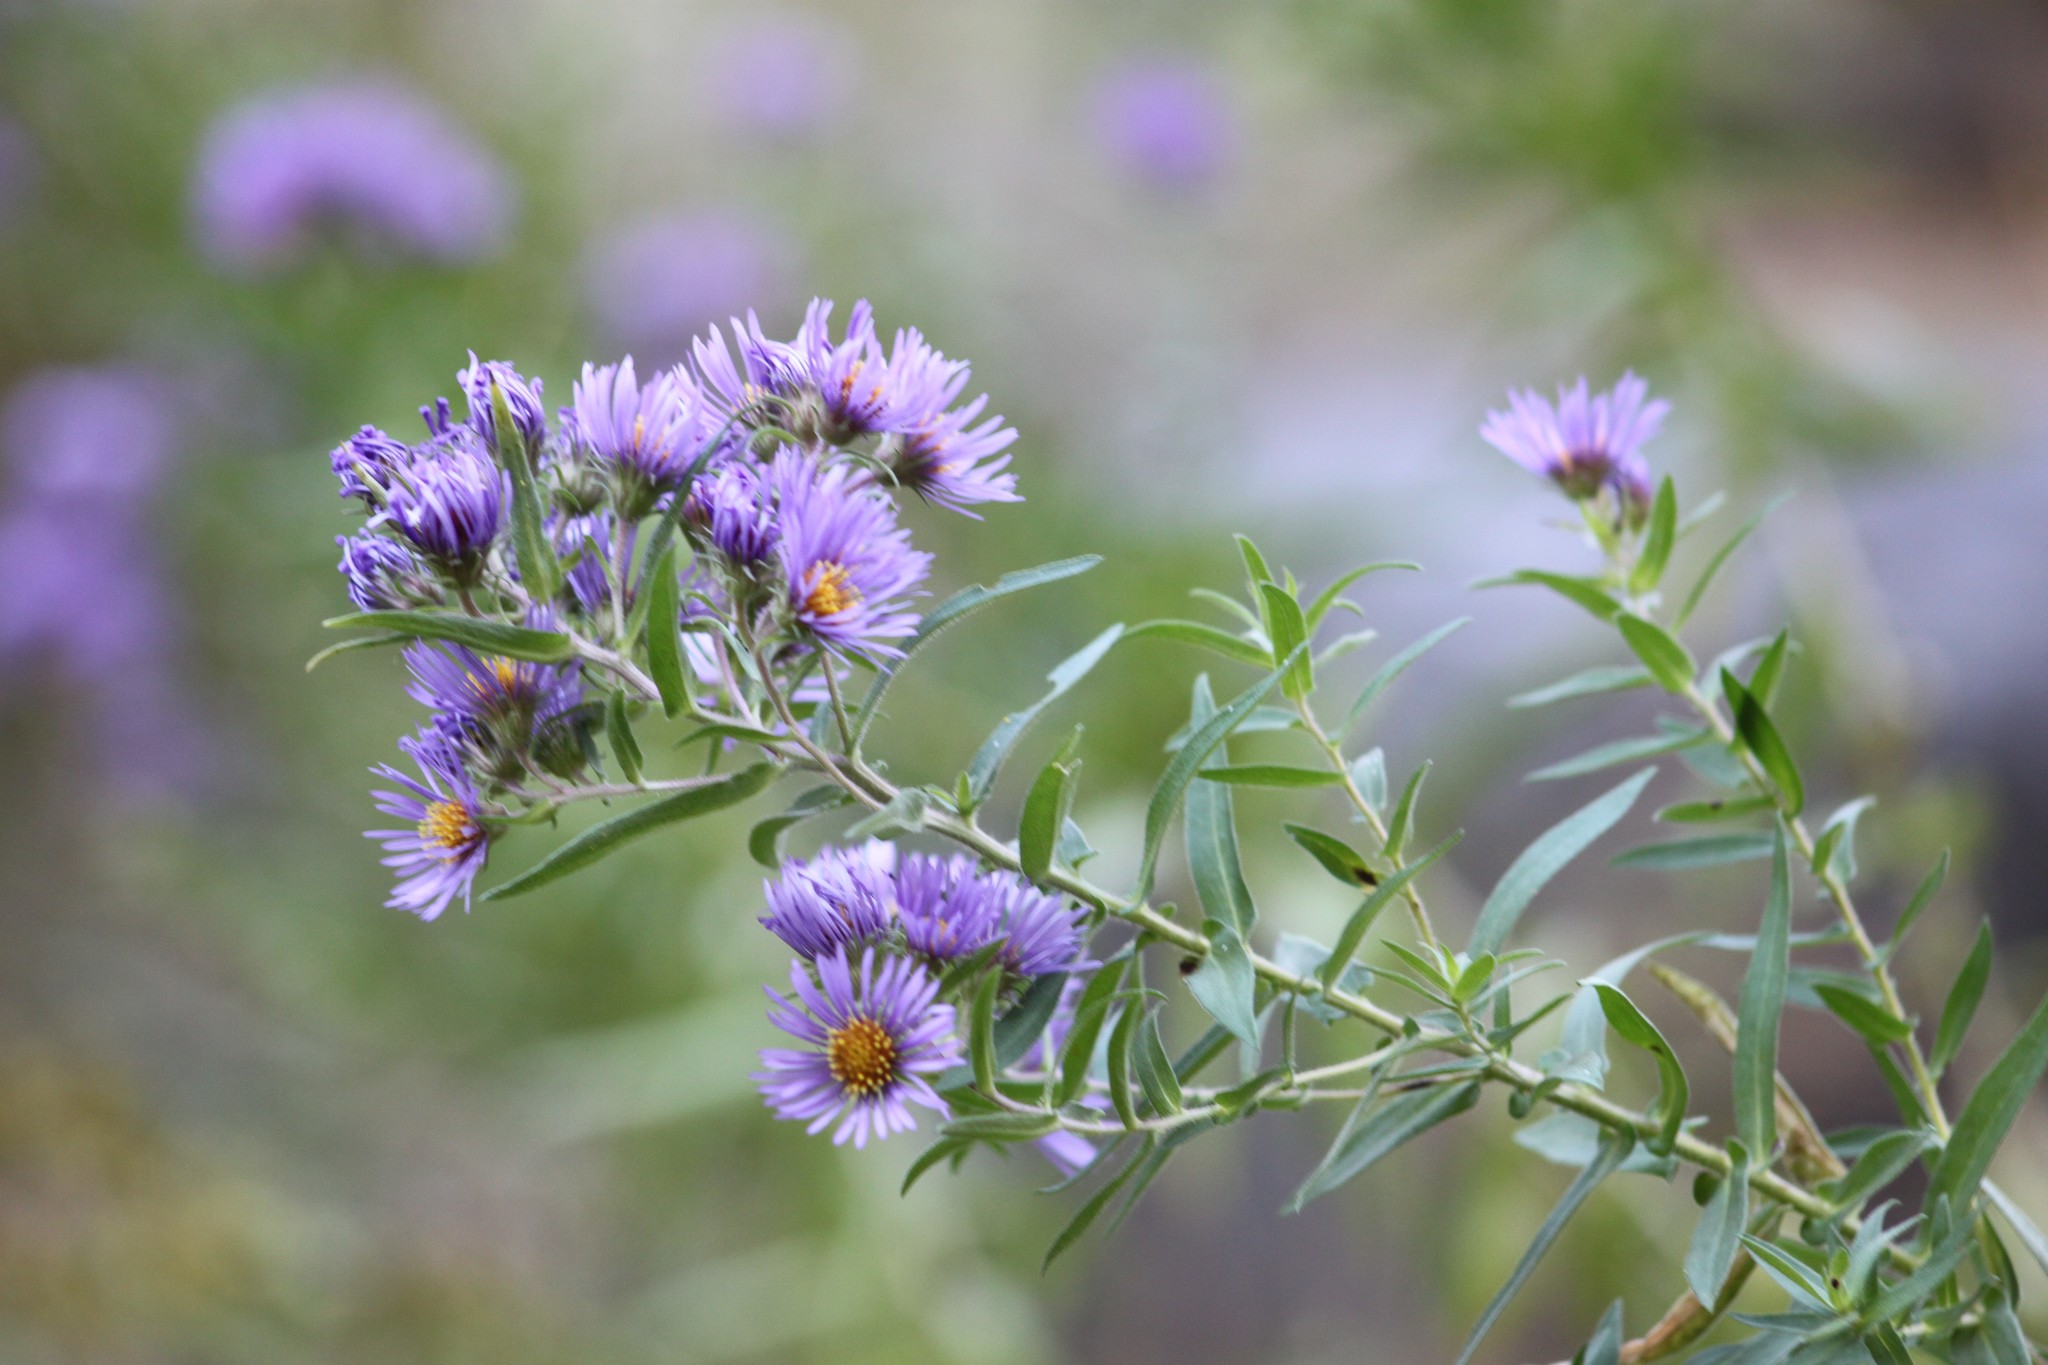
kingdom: Plantae
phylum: Tracheophyta
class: Magnoliopsida
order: Asterales
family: Asteraceae
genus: Symphyotrichum
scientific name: Symphyotrichum novae-angliae
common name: Michaelmas daisy
